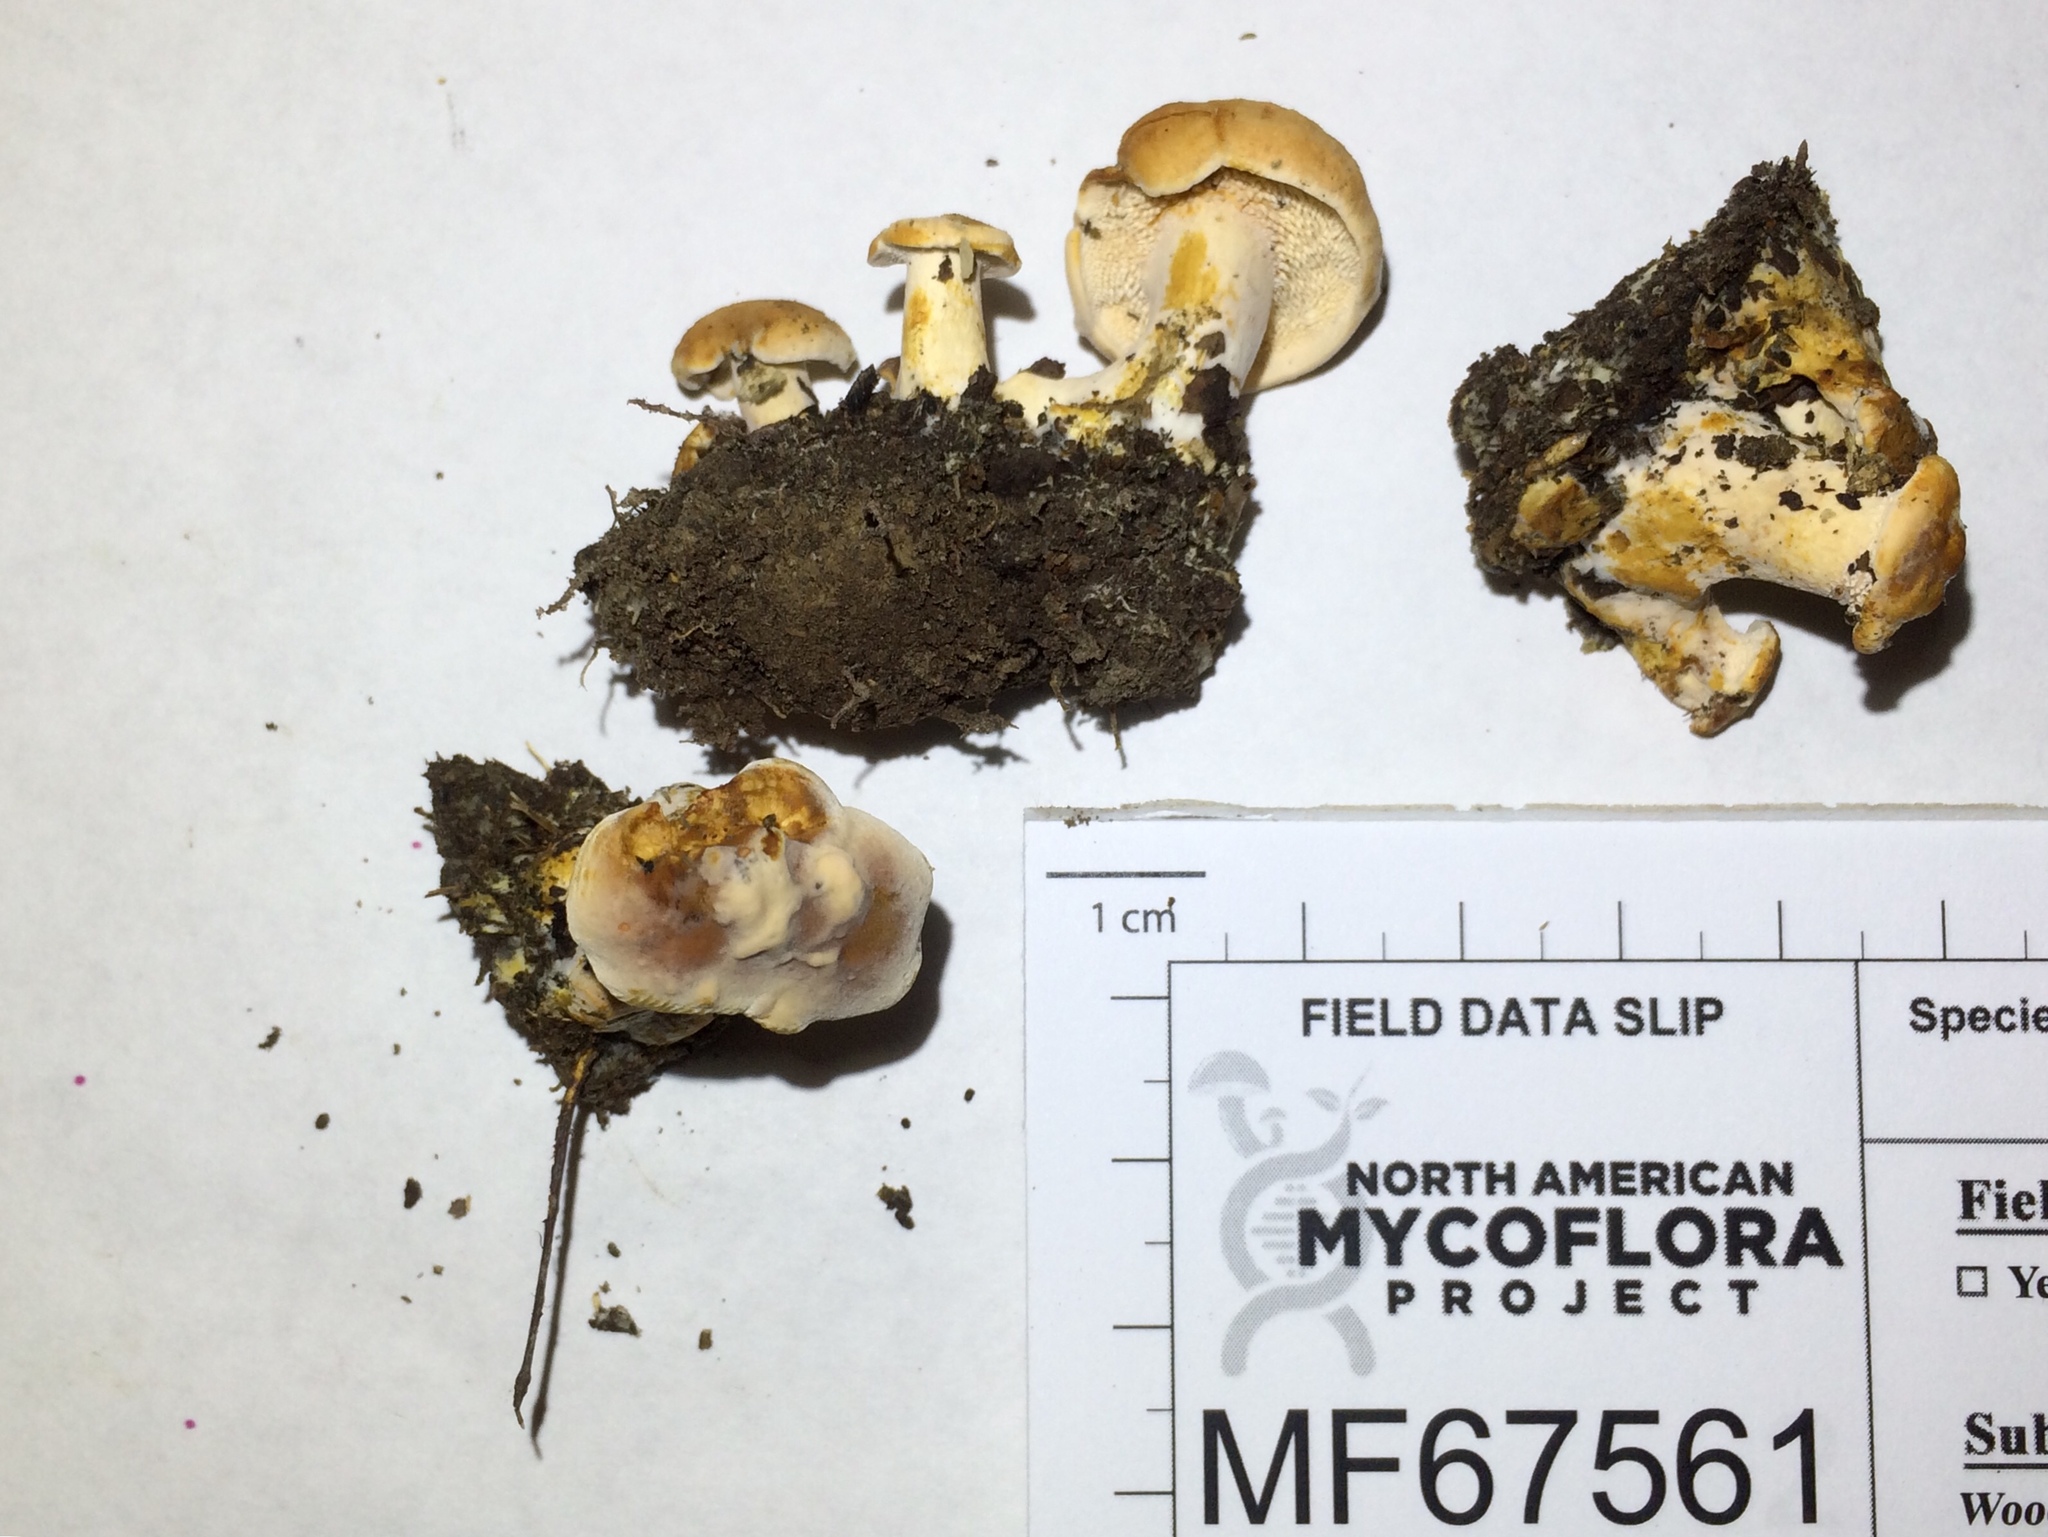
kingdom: Fungi
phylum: Basidiomycota
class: Agaricomycetes
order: Cantharellales
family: Hydnaceae
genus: Hydnum
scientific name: Hydnum cuspidatum
